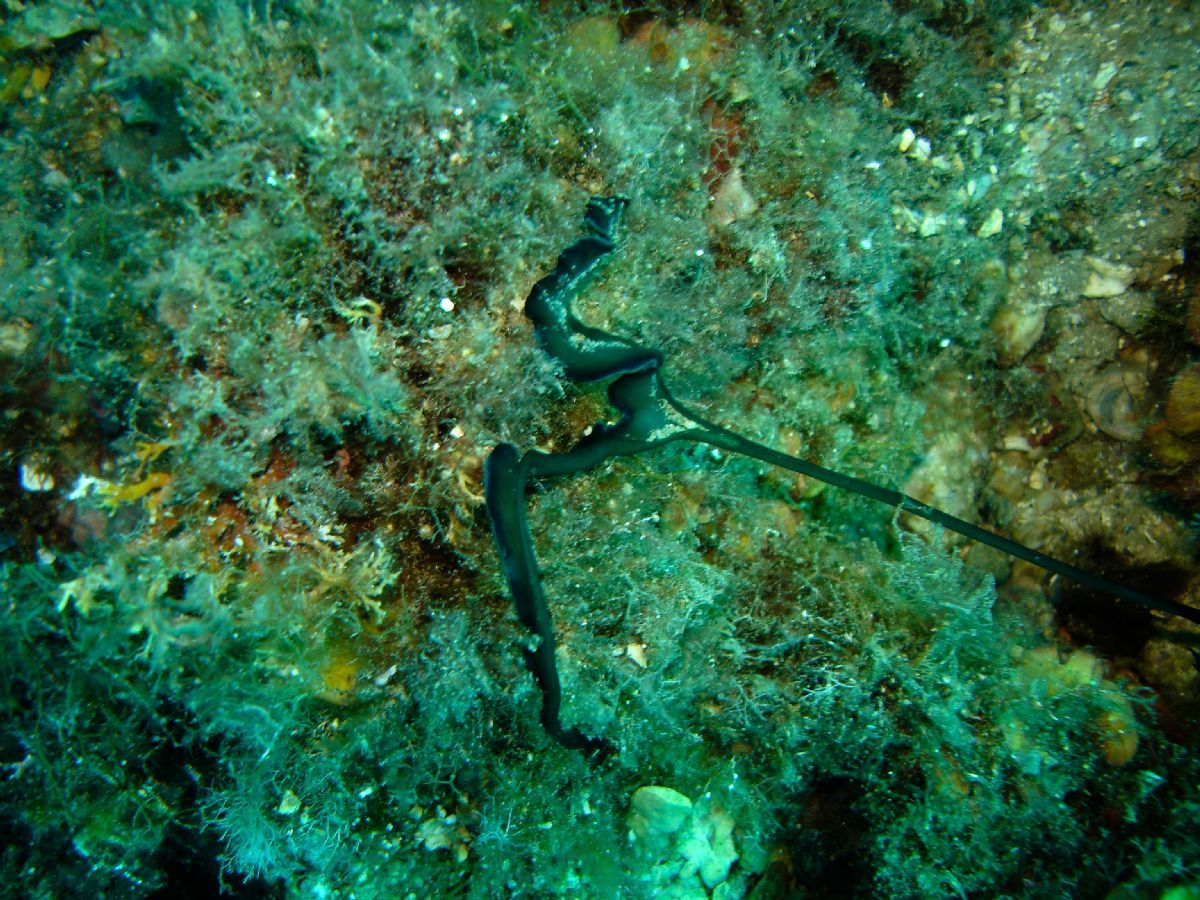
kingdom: Animalia
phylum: Annelida
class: Polychaeta
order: Echiuroidea
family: Bonelliidae
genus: Bonellia
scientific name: Bonellia viridis
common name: Green spoon worm
